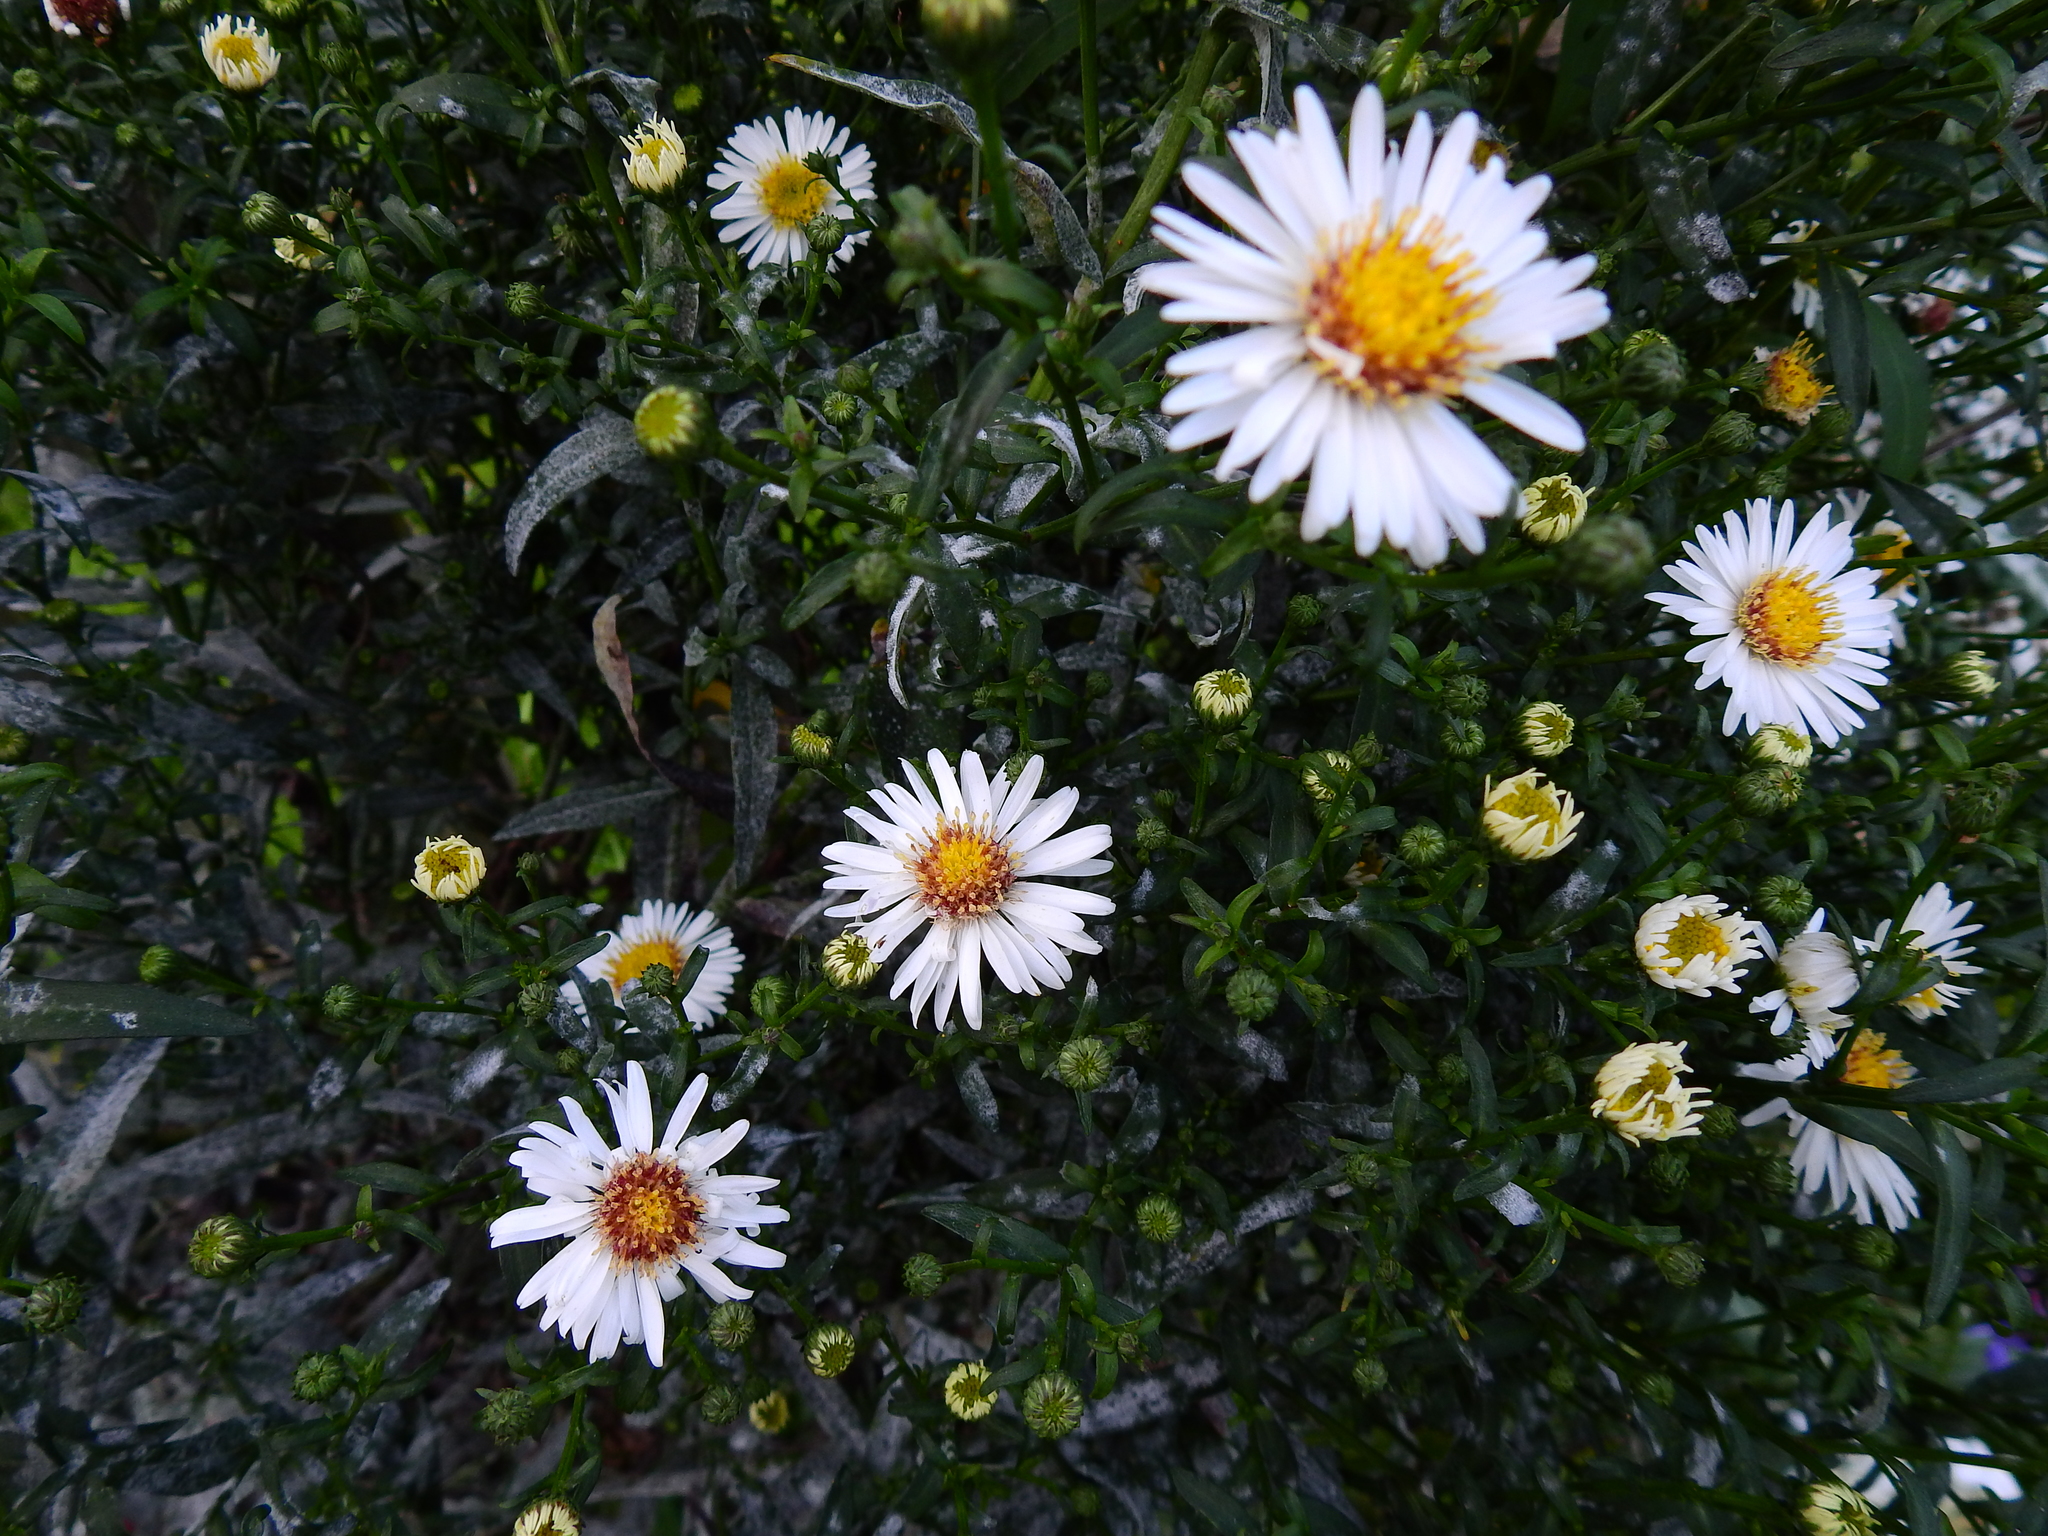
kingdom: Plantae
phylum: Tracheophyta
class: Magnoliopsida
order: Asterales
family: Asteraceae
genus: Symphyotrichum
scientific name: Symphyotrichum lanceolatum
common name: Panicled aster
